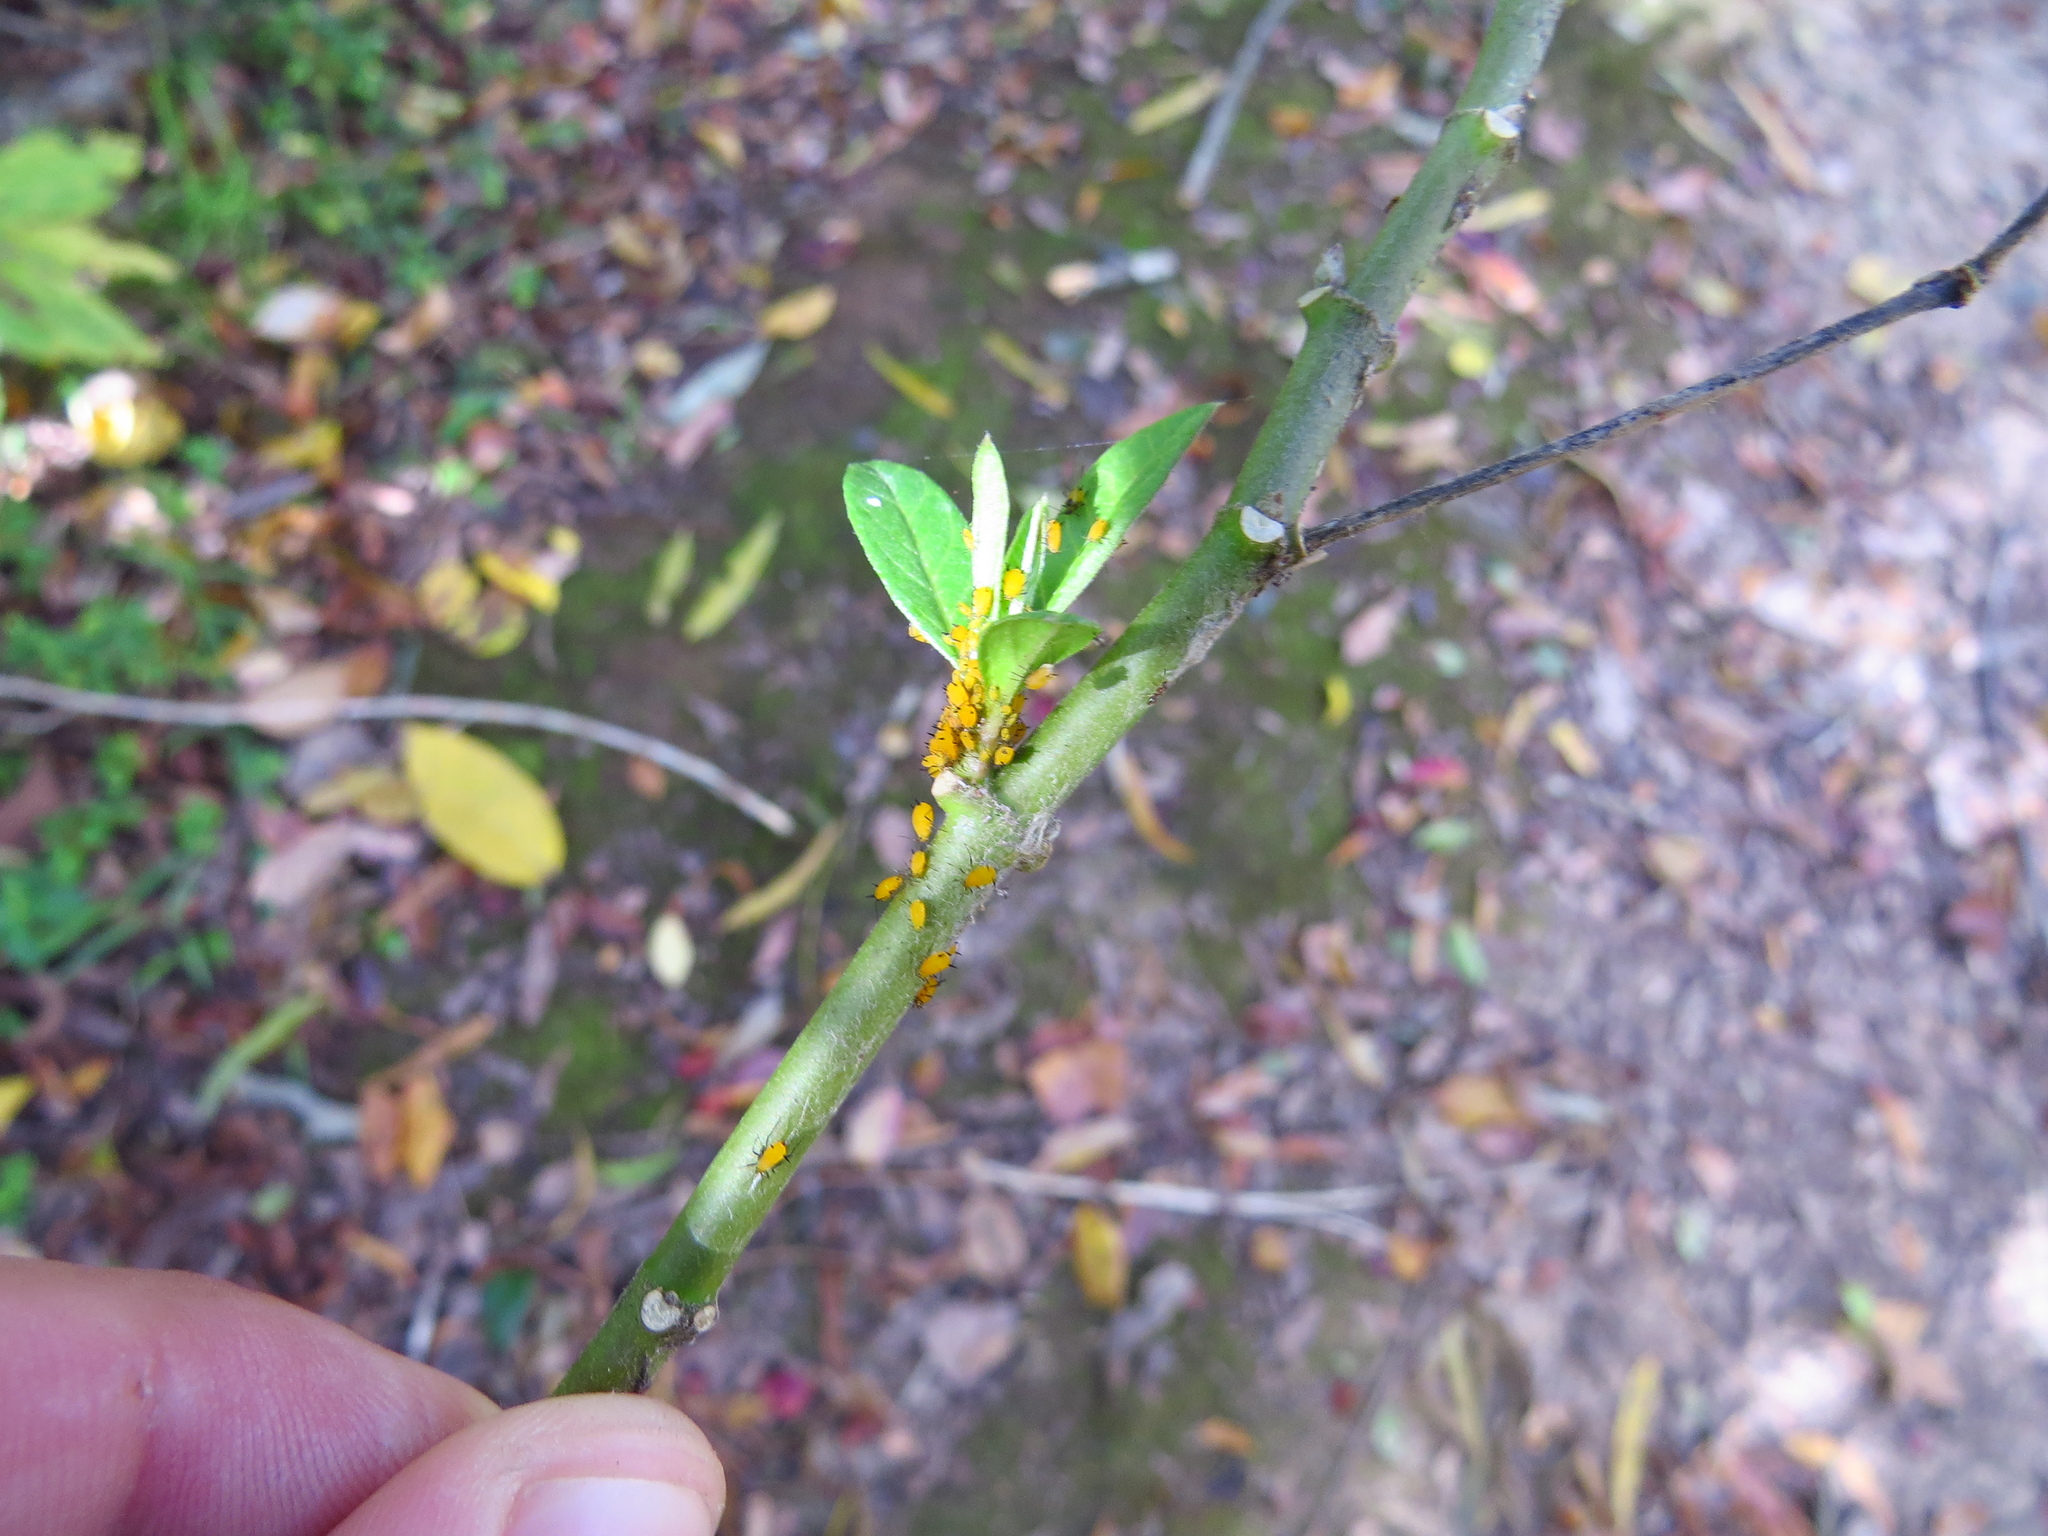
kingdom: Animalia
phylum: Arthropoda
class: Insecta
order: Hemiptera
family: Aphididae
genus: Aphis
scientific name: Aphis nerii
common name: Oleander aphid
